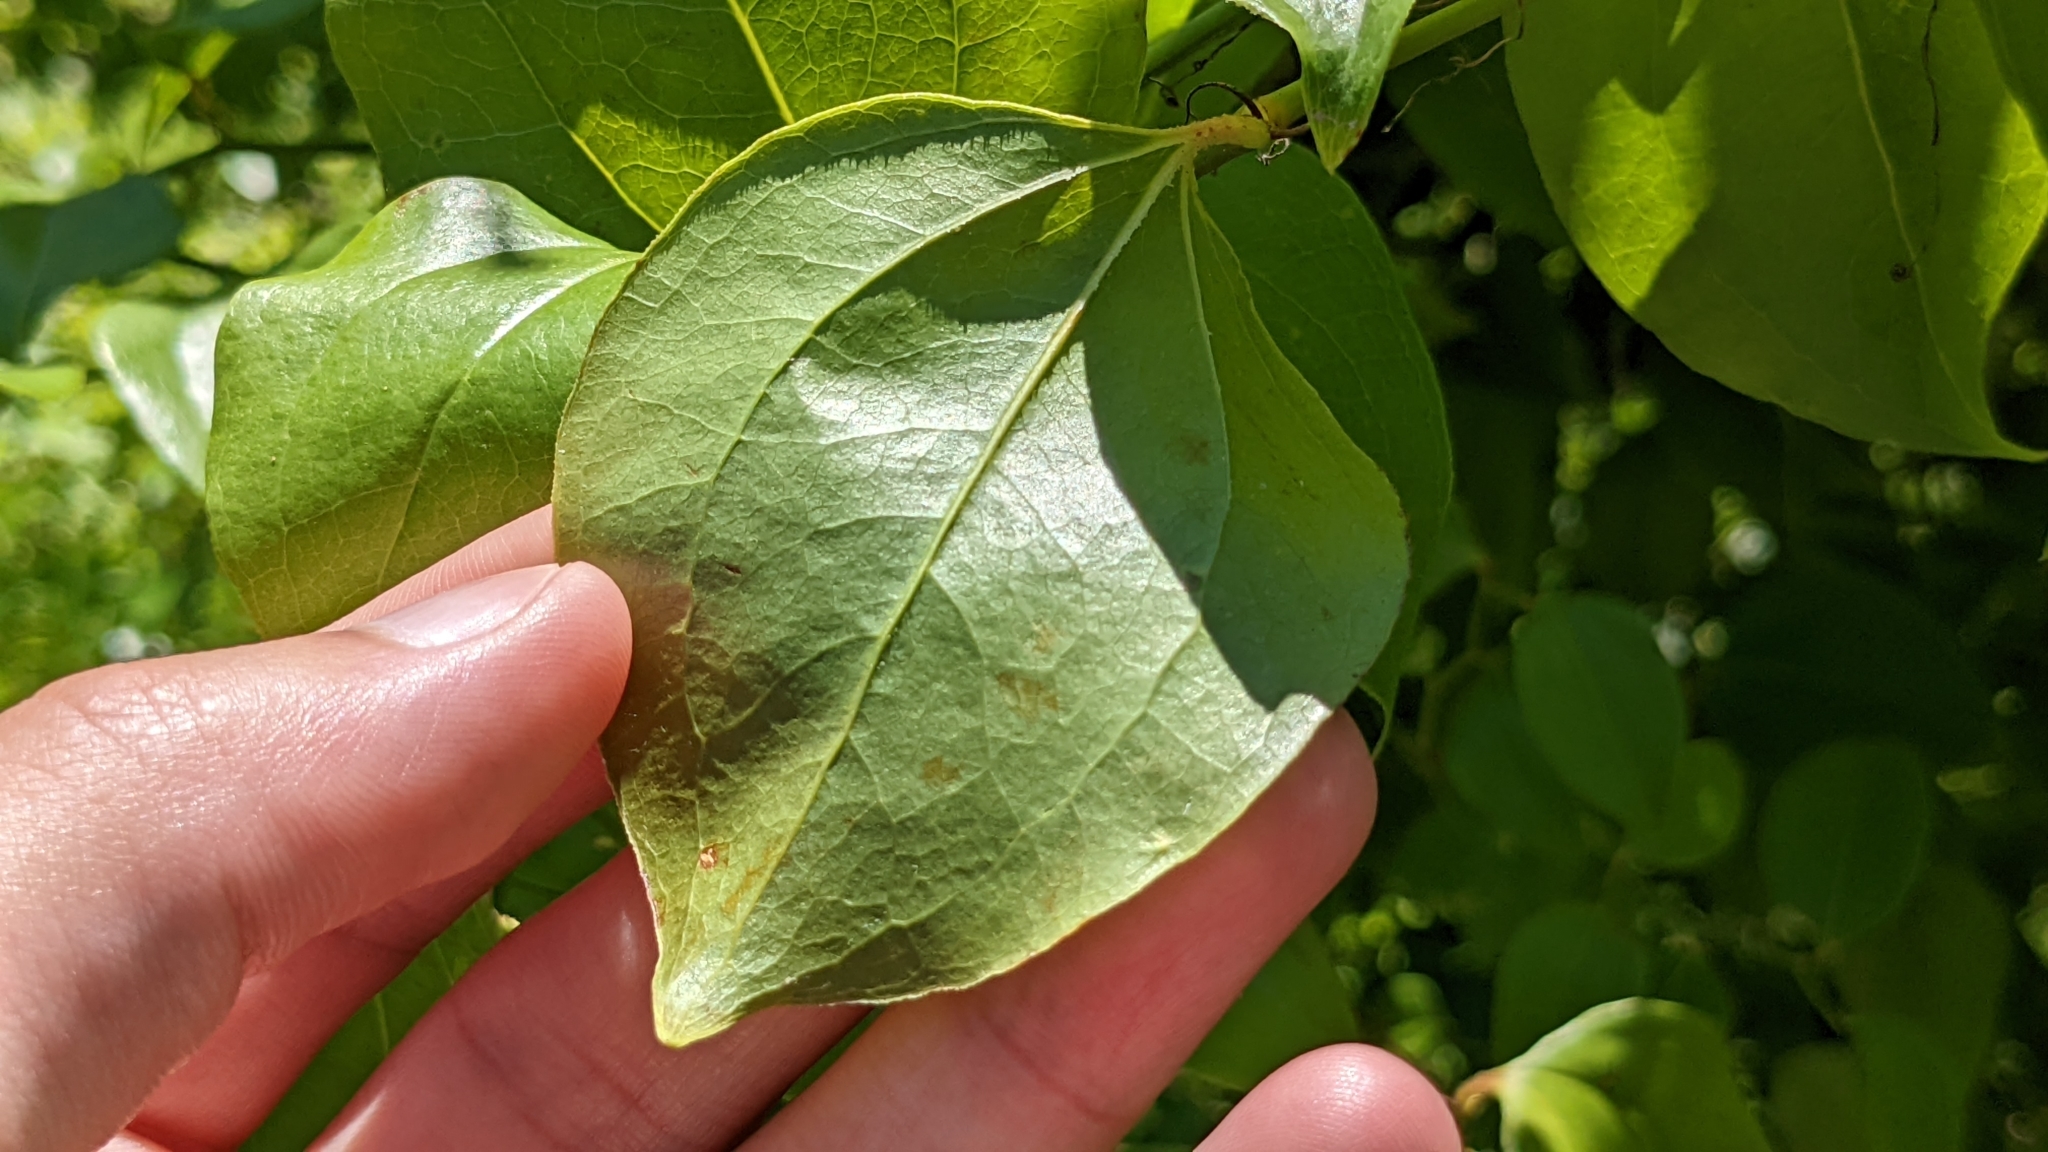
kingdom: Plantae
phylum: Tracheophyta
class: Liliopsida
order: Liliales
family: Smilacaceae
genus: Smilax
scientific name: Smilax rotundifolia
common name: Bullbriar
